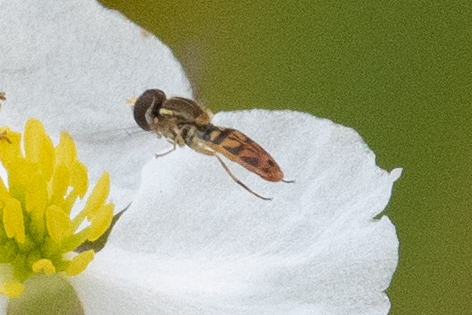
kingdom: Animalia
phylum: Arthropoda
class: Insecta
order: Diptera
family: Syrphidae
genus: Toxomerus
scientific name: Toxomerus marginatus
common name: Syrphid fly
